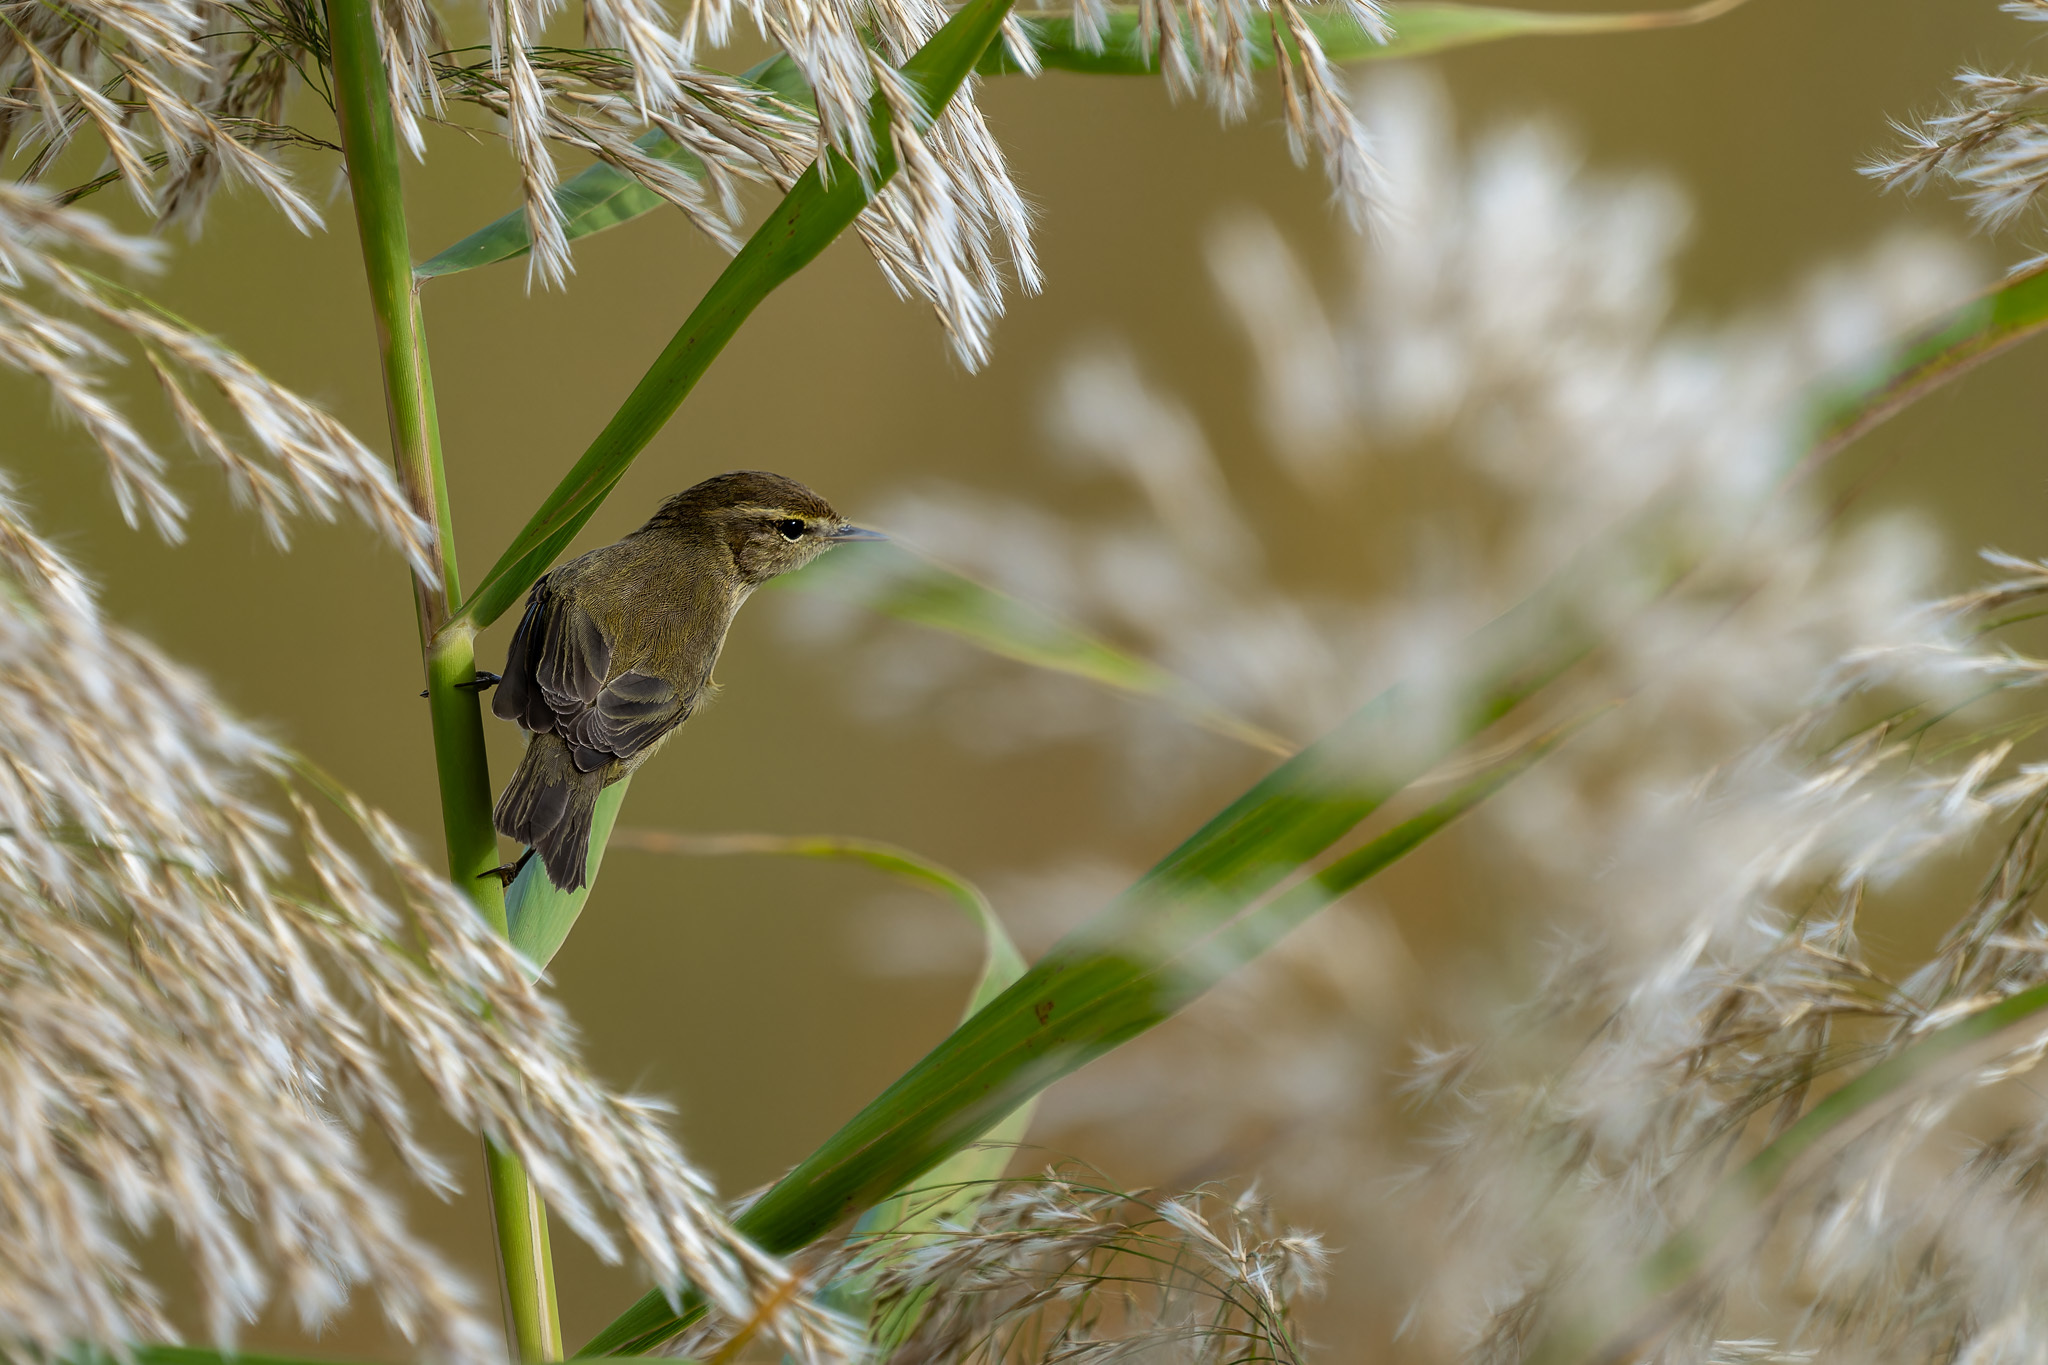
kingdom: Animalia
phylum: Chordata
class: Aves
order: Passeriformes
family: Phylloscopidae
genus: Phylloscopus
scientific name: Phylloscopus collybita
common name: Common chiffchaff
